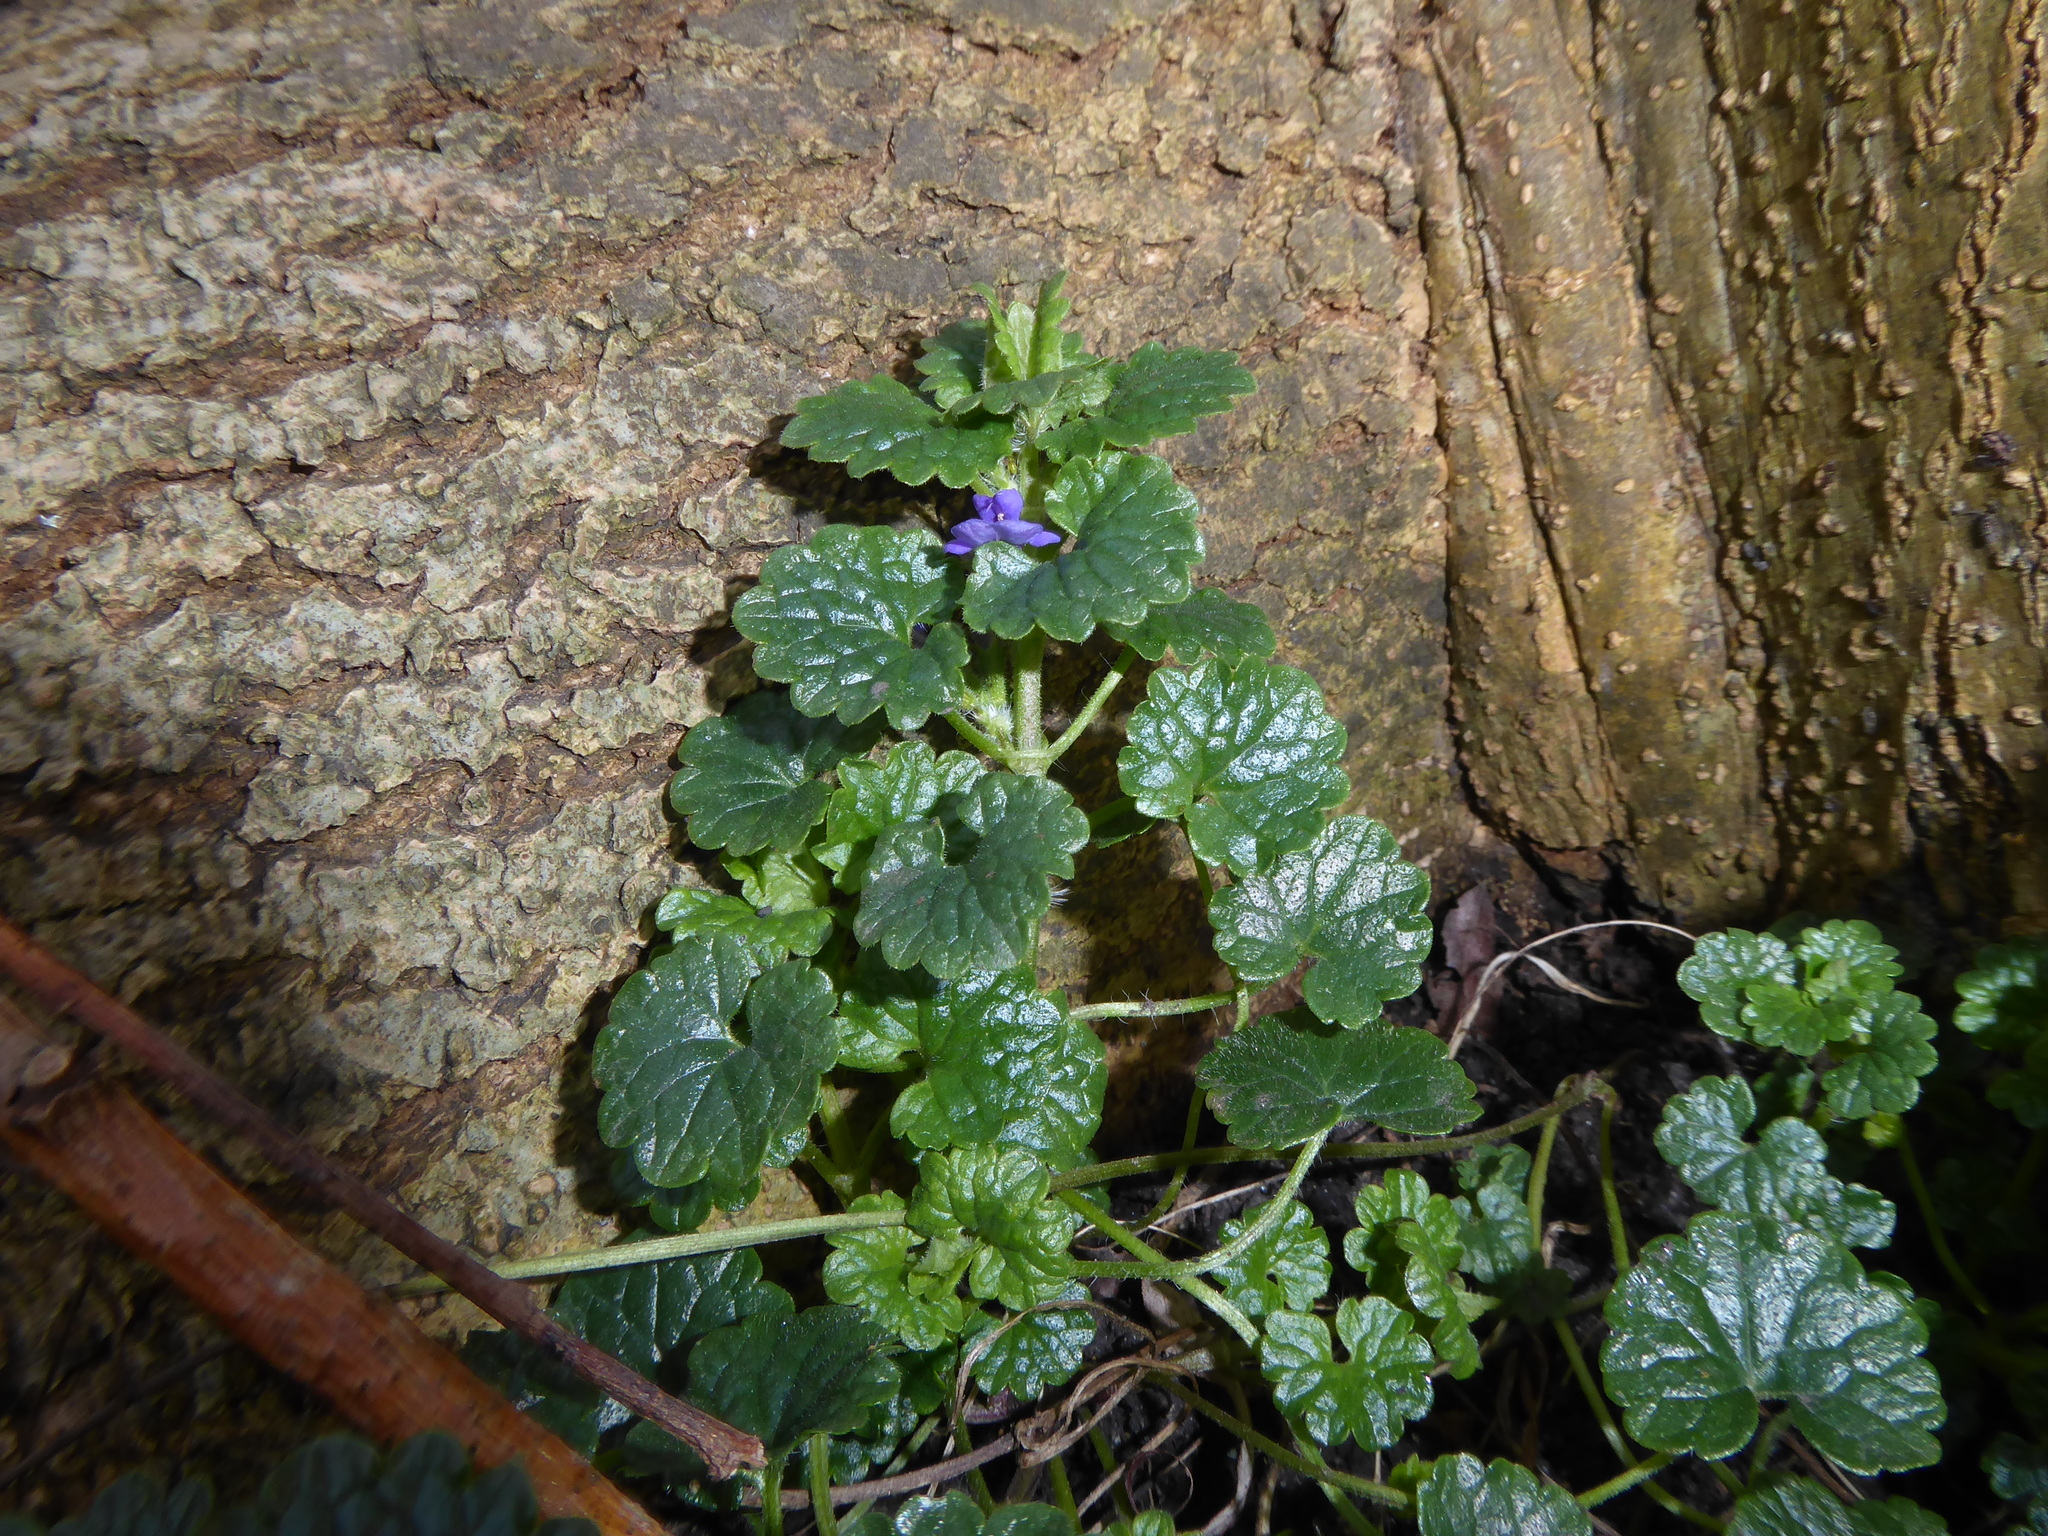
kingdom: Plantae
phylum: Tracheophyta
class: Magnoliopsida
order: Lamiales
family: Lamiaceae
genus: Glechoma
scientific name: Glechoma hederacea
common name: Ground ivy
